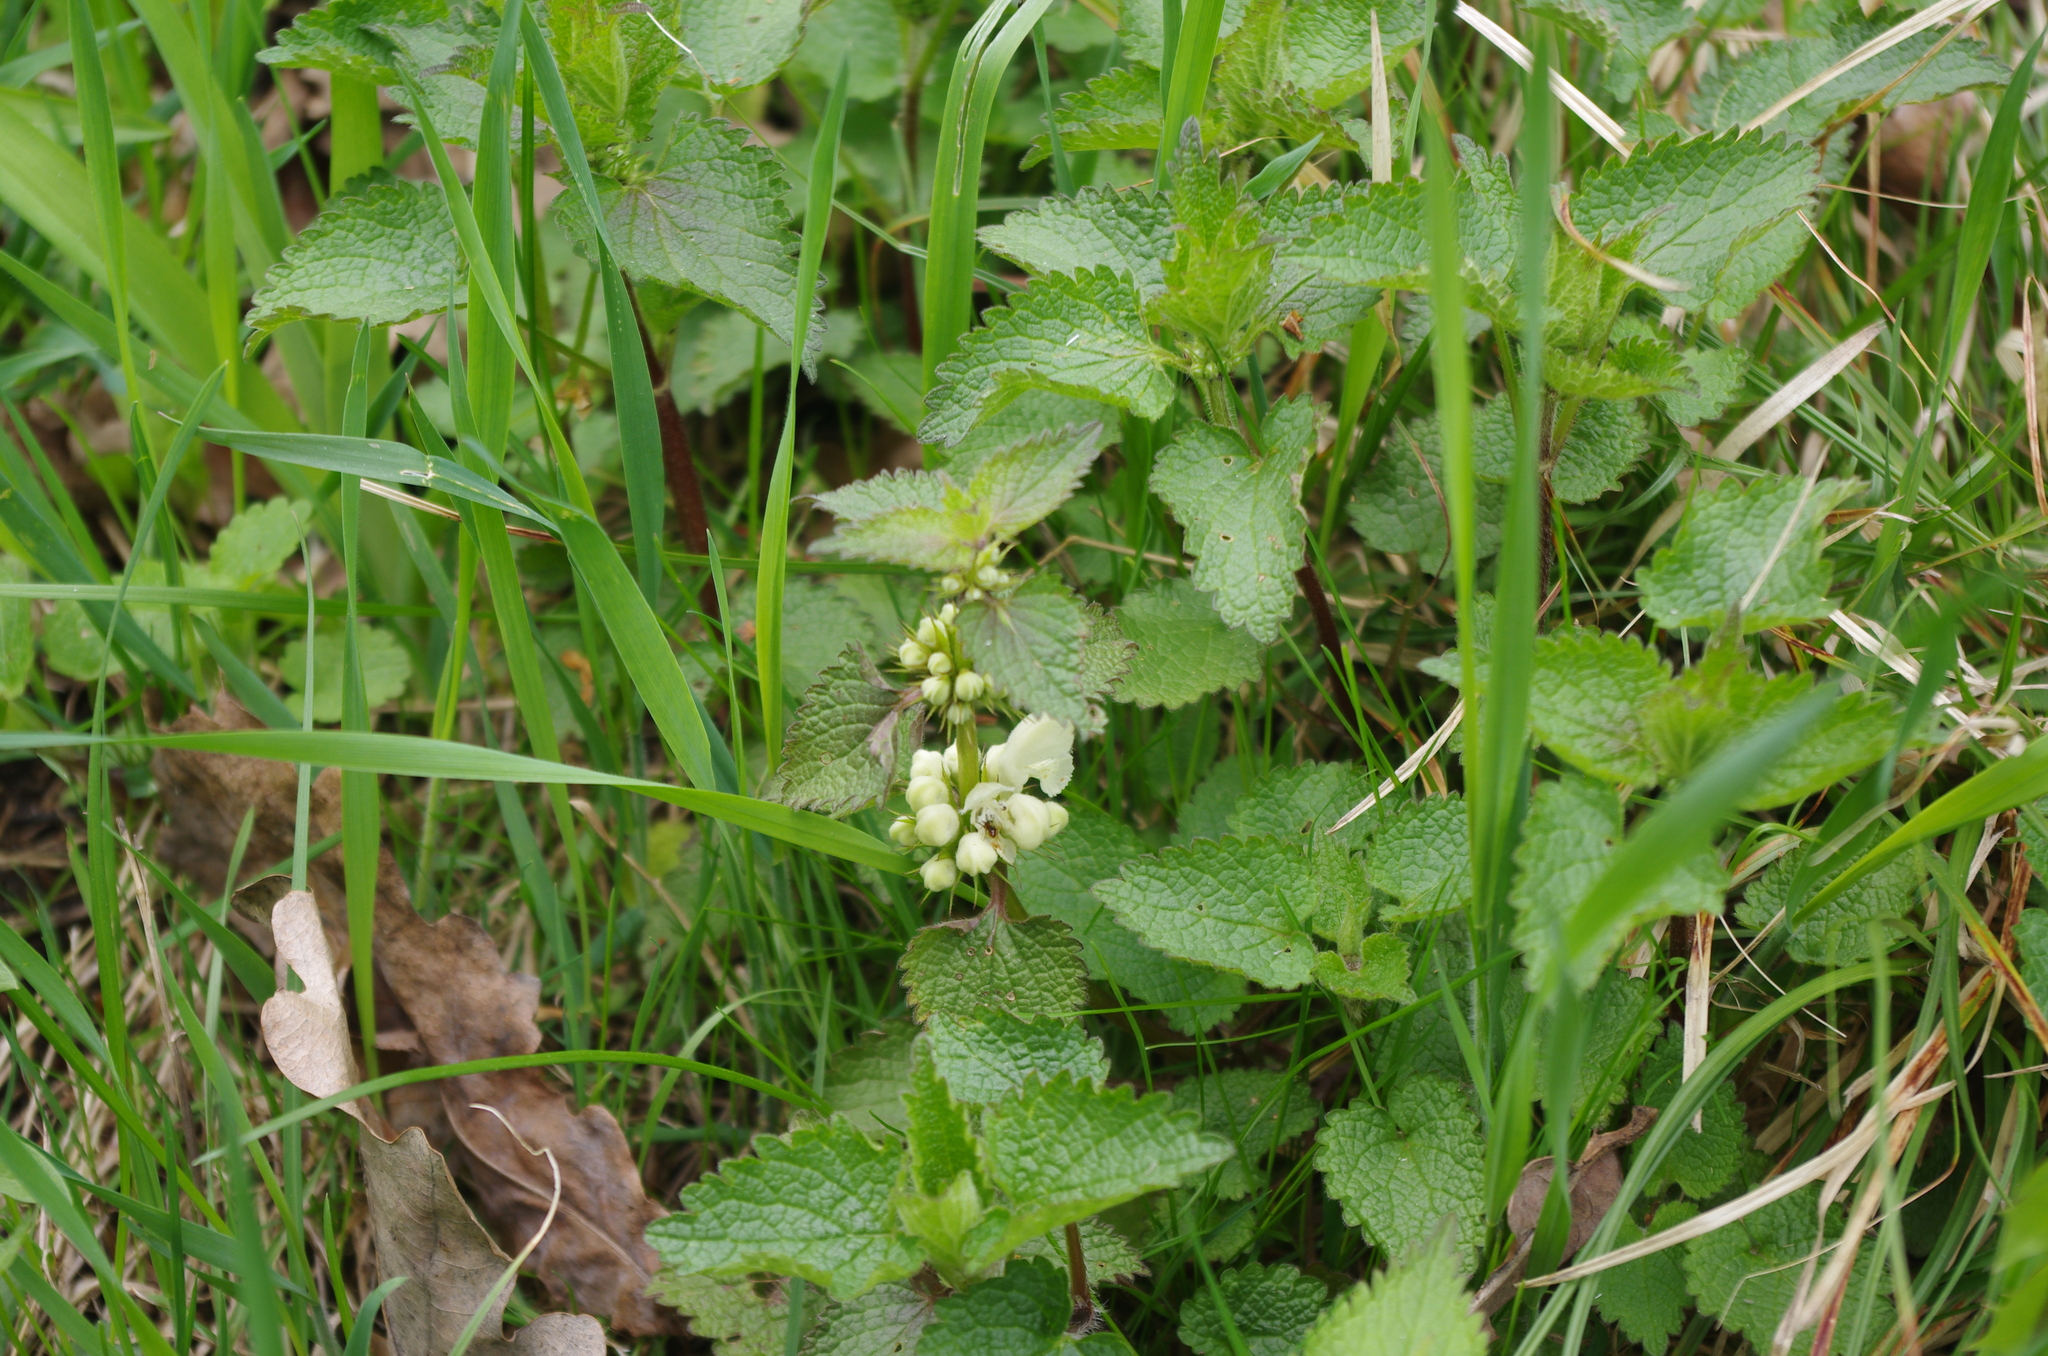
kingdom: Plantae
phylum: Tracheophyta
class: Magnoliopsida
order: Lamiales
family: Lamiaceae
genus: Lamium
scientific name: Lamium album
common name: White dead-nettle
